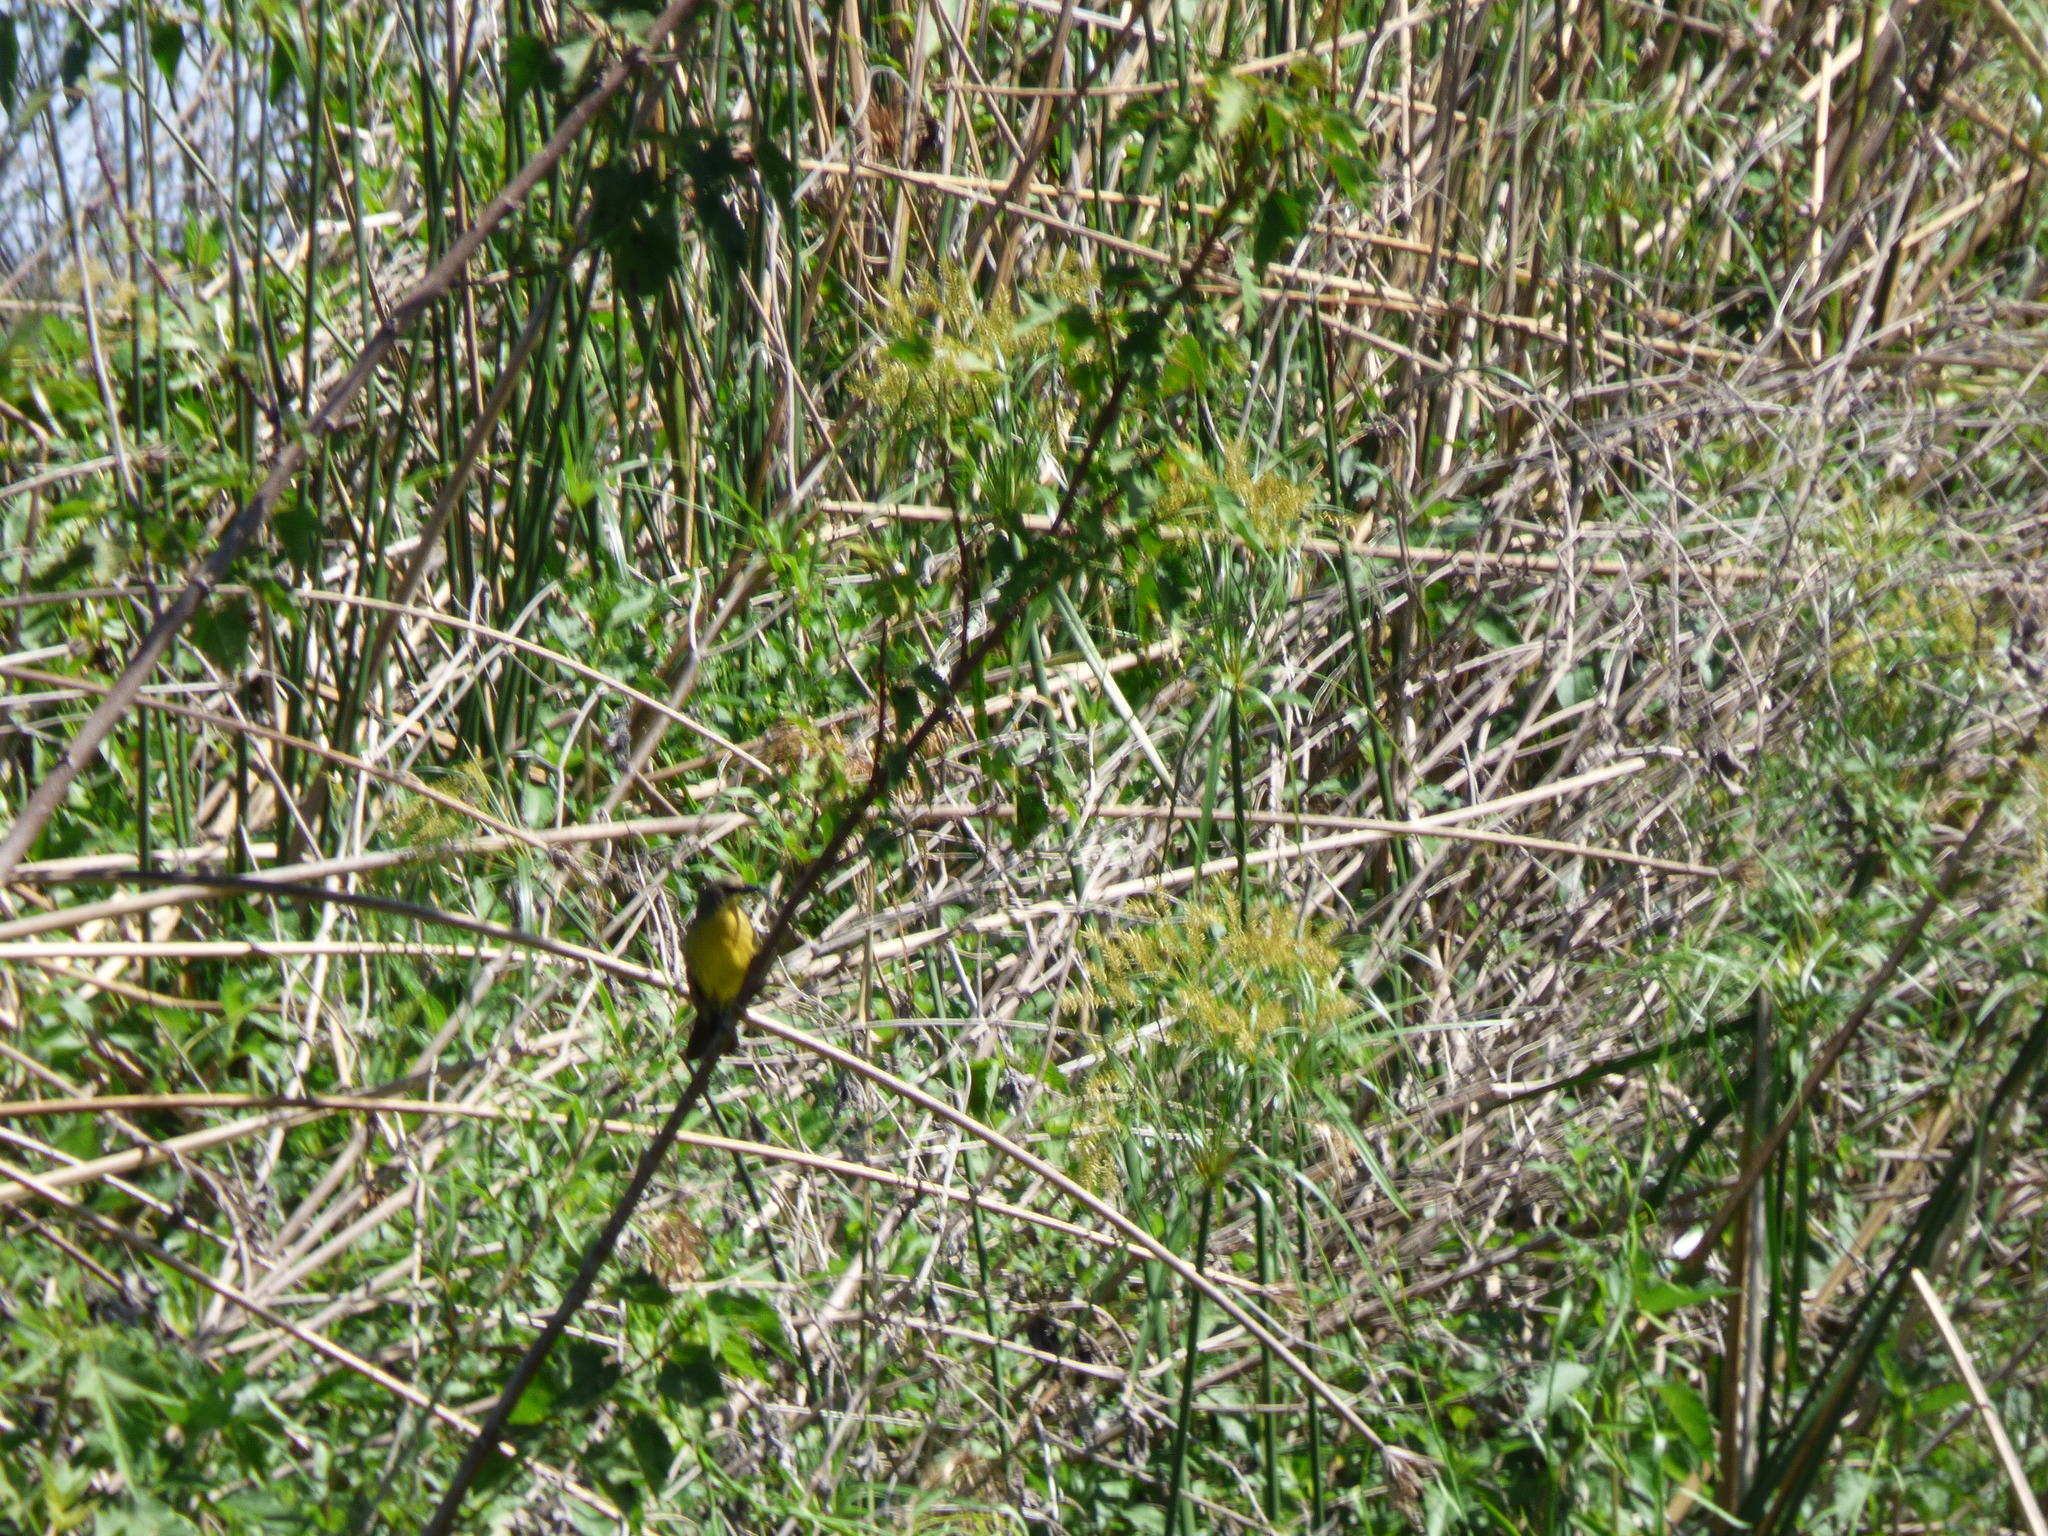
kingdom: Animalia
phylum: Chordata
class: Aves
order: Passeriformes
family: Icteridae
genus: Agelasticus
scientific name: Agelasticus cyanopus
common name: Unicolored blackbird
